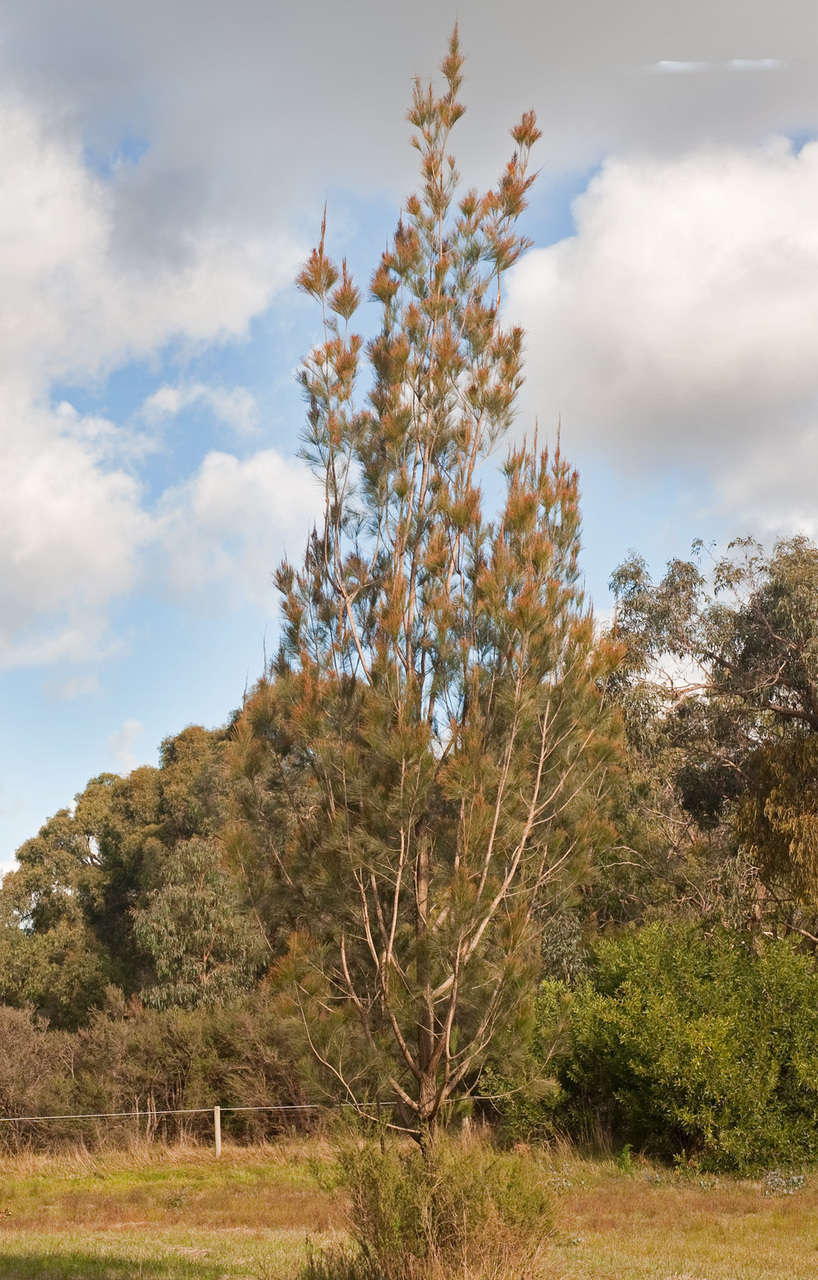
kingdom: Plantae
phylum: Tracheophyta
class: Magnoliopsida
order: Fagales
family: Casuarinaceae
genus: Allocasuarina
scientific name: Allocasuarina littoralis
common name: Black she-oak
